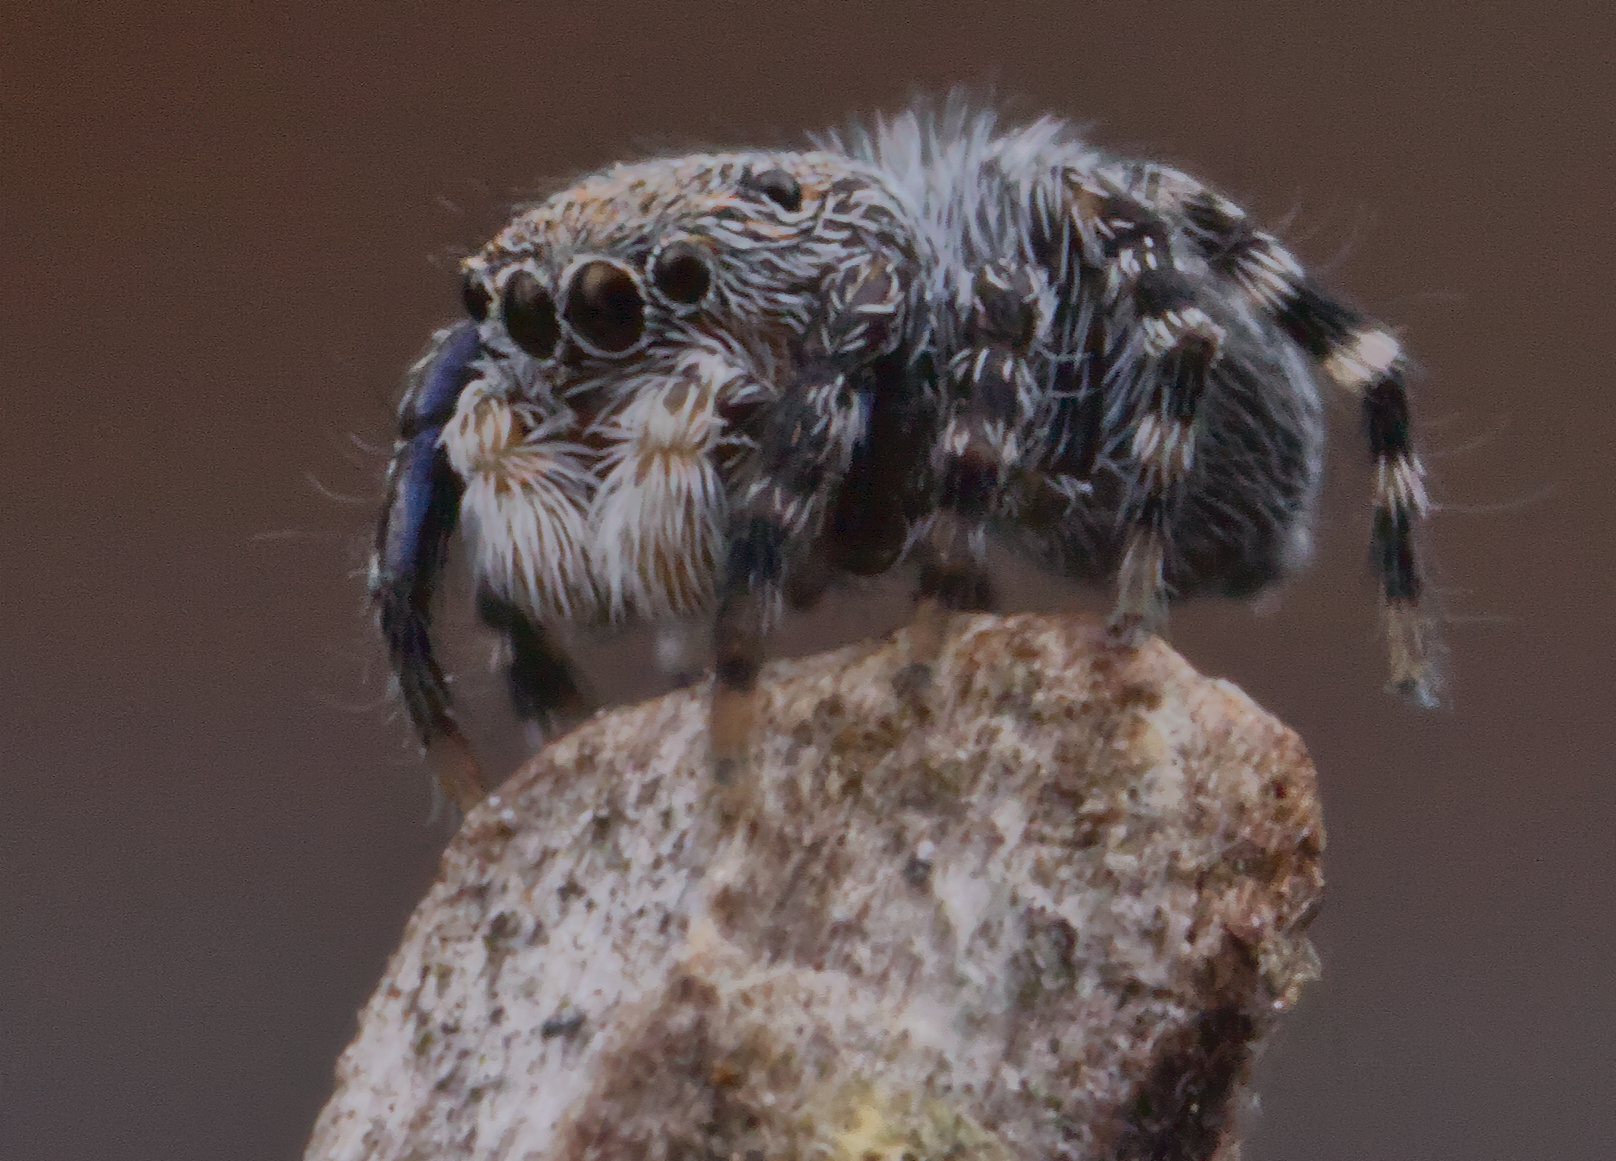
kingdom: Animalia
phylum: Arthropoda
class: Arachnida
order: Araneae
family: Salticidae
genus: Talavera
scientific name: Talavera minuta
